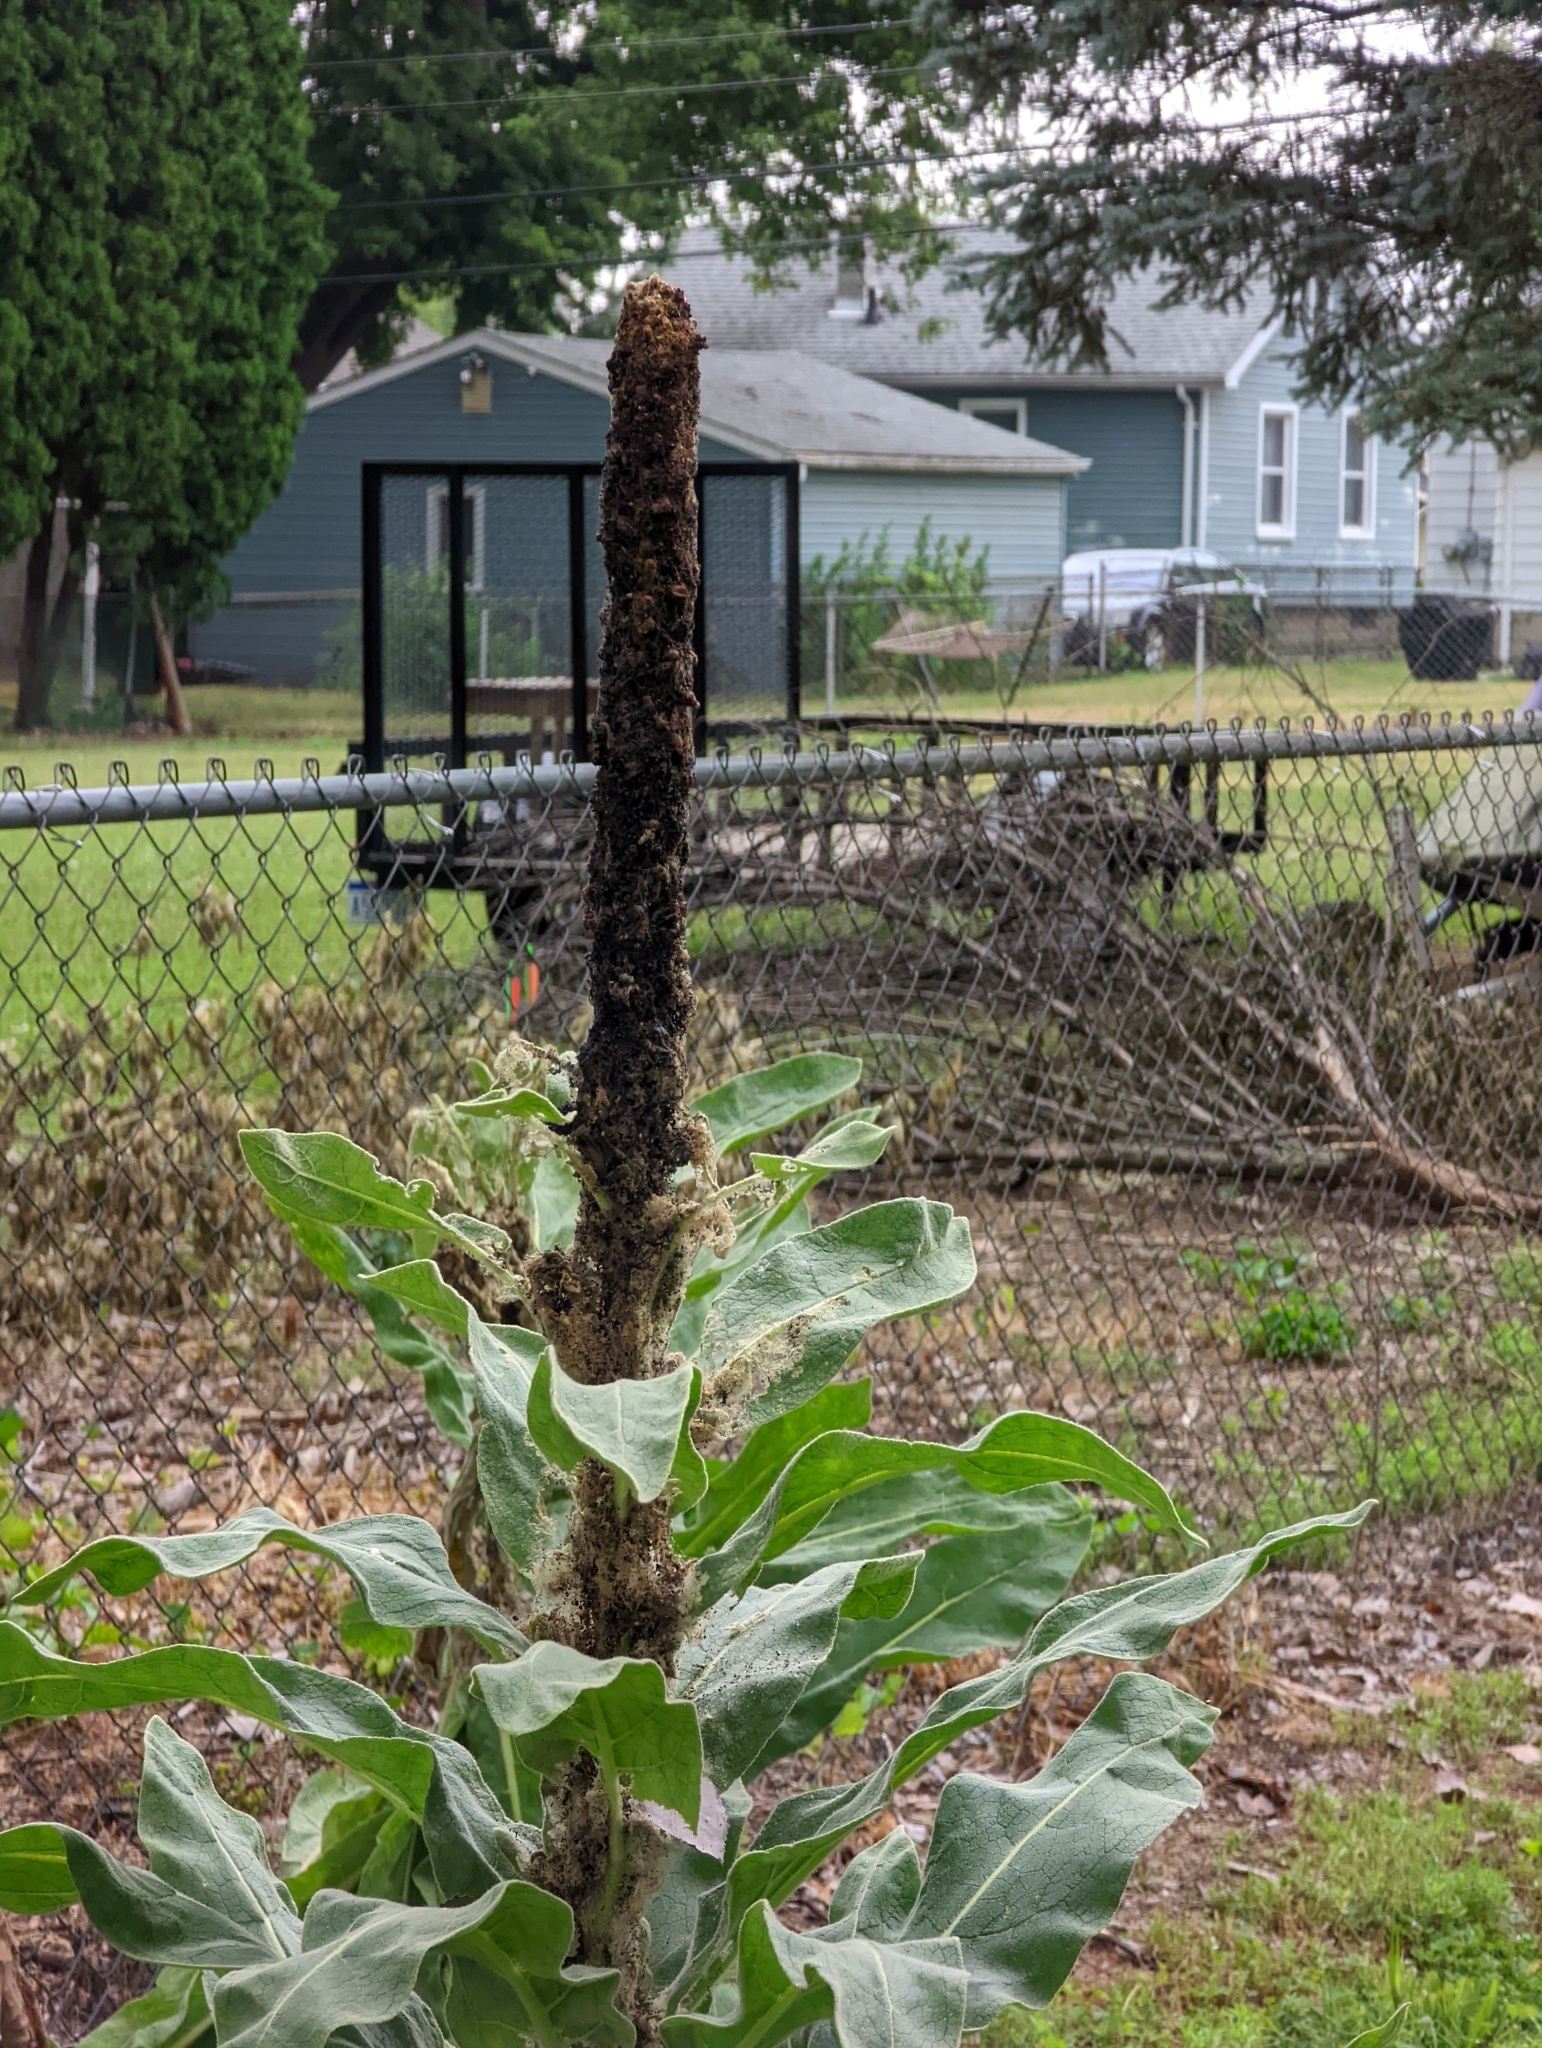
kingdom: Plantae
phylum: Tracheophyta
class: Magnoliopsida
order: Lamiales
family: Scrophulariaceae
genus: Verbascum
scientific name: Verbascum thapsus
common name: Common mullein
